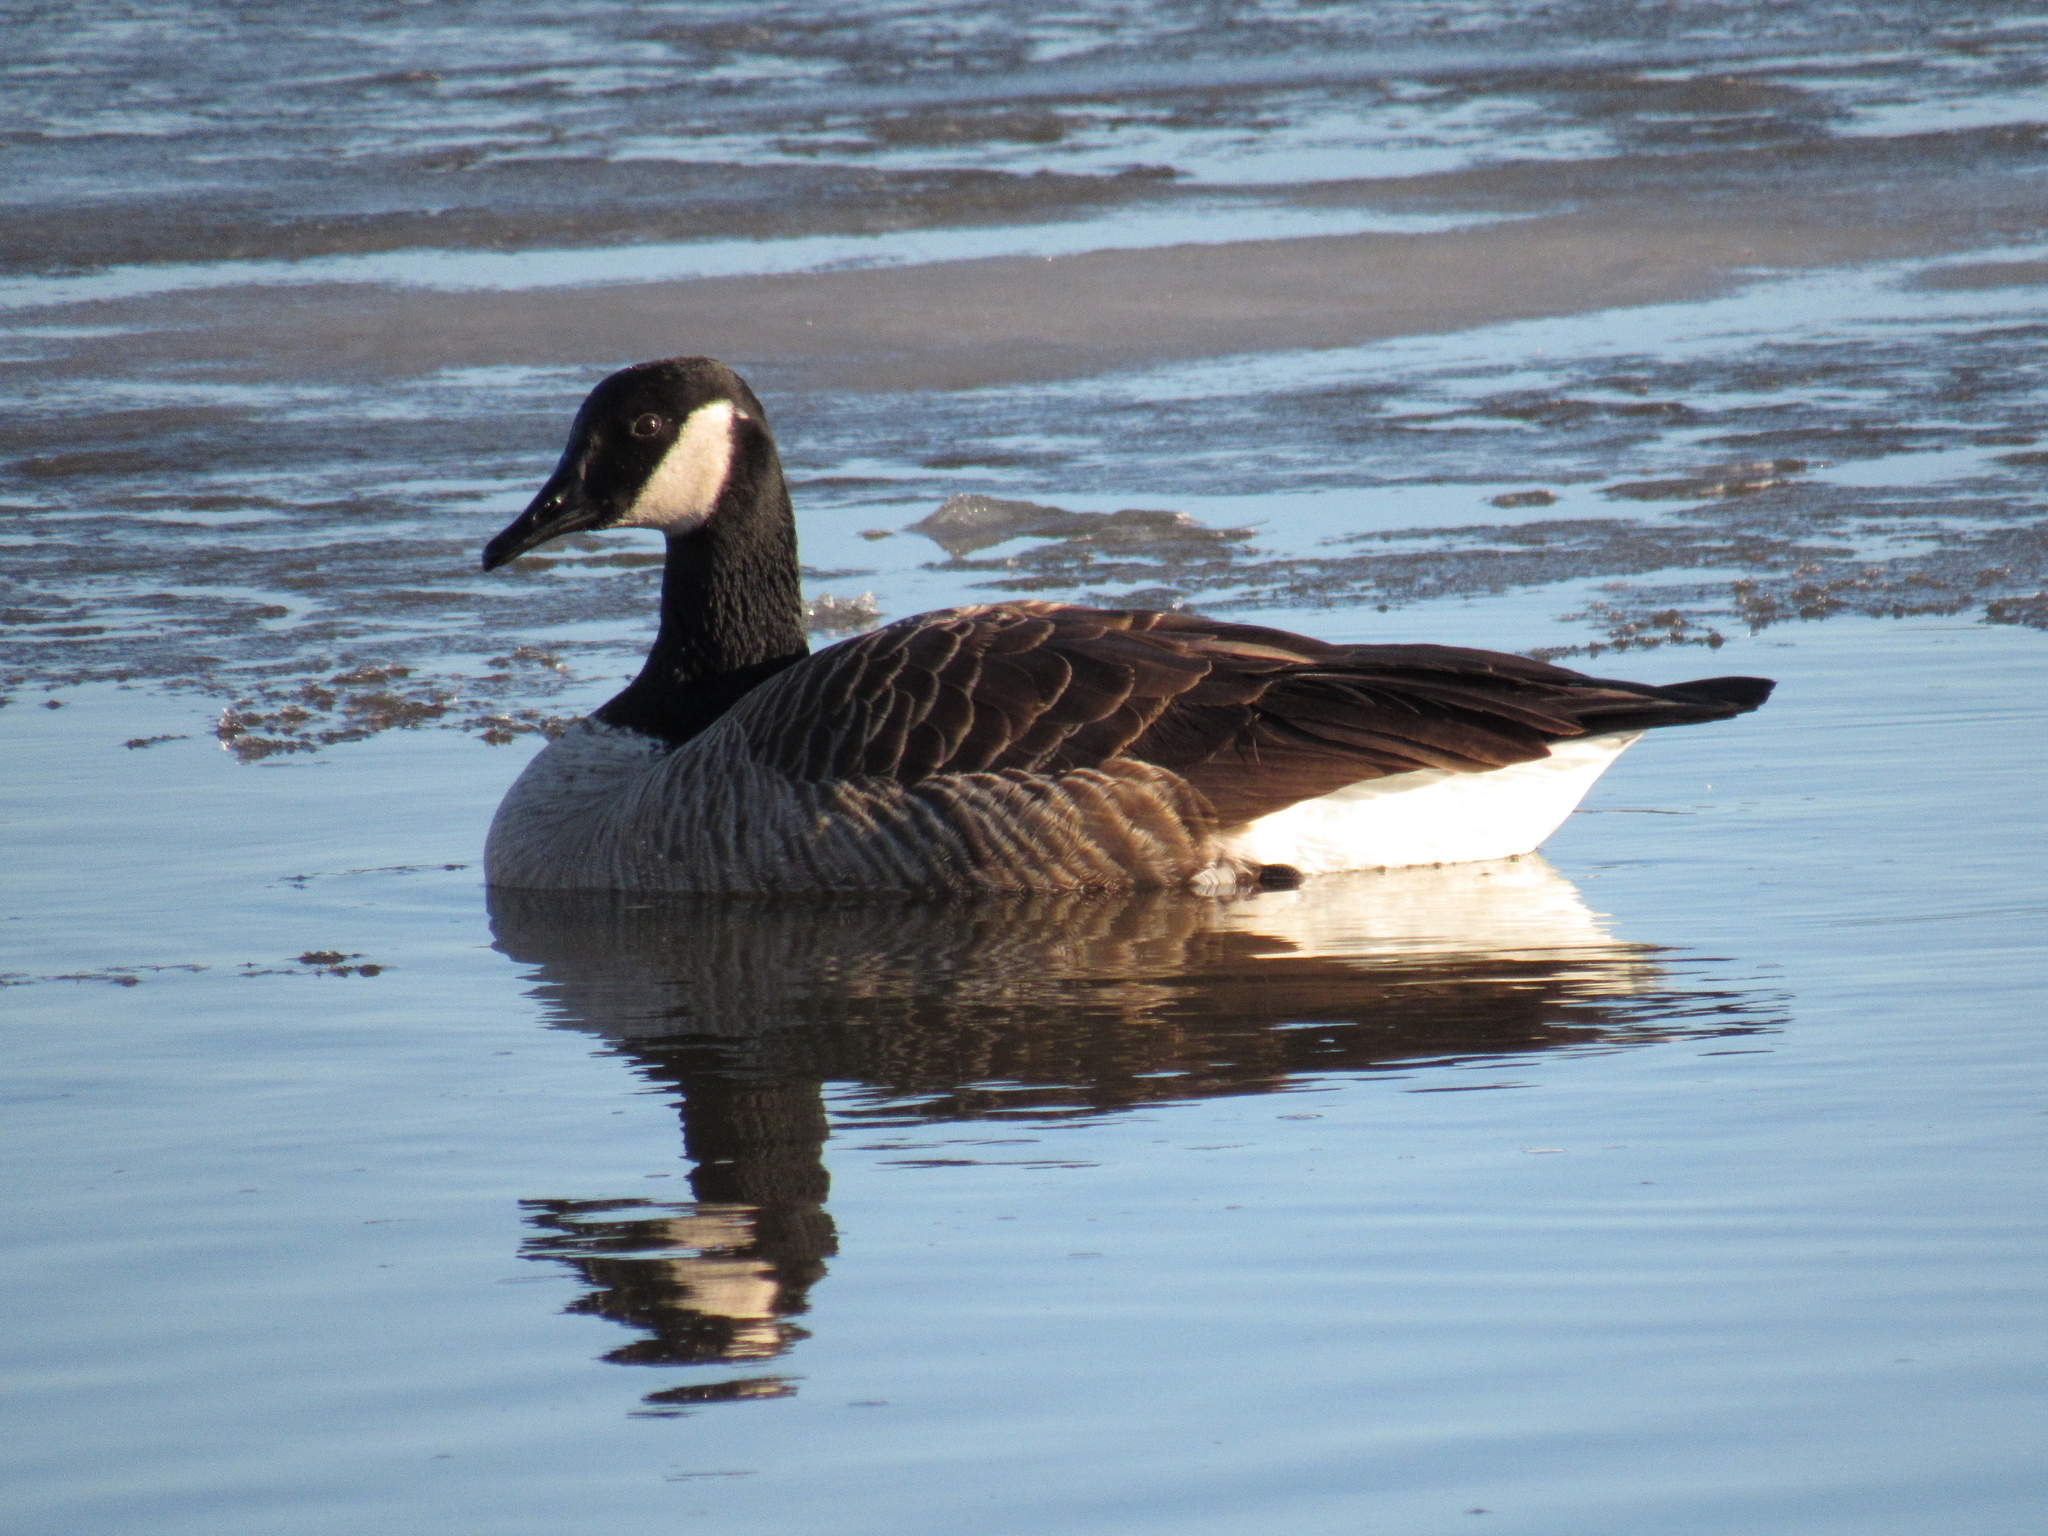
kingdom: Animalia
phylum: Chordata
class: Aves
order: Anseriformes
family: Anatidae
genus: Branta
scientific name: Branta canadensis
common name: Canada goose
